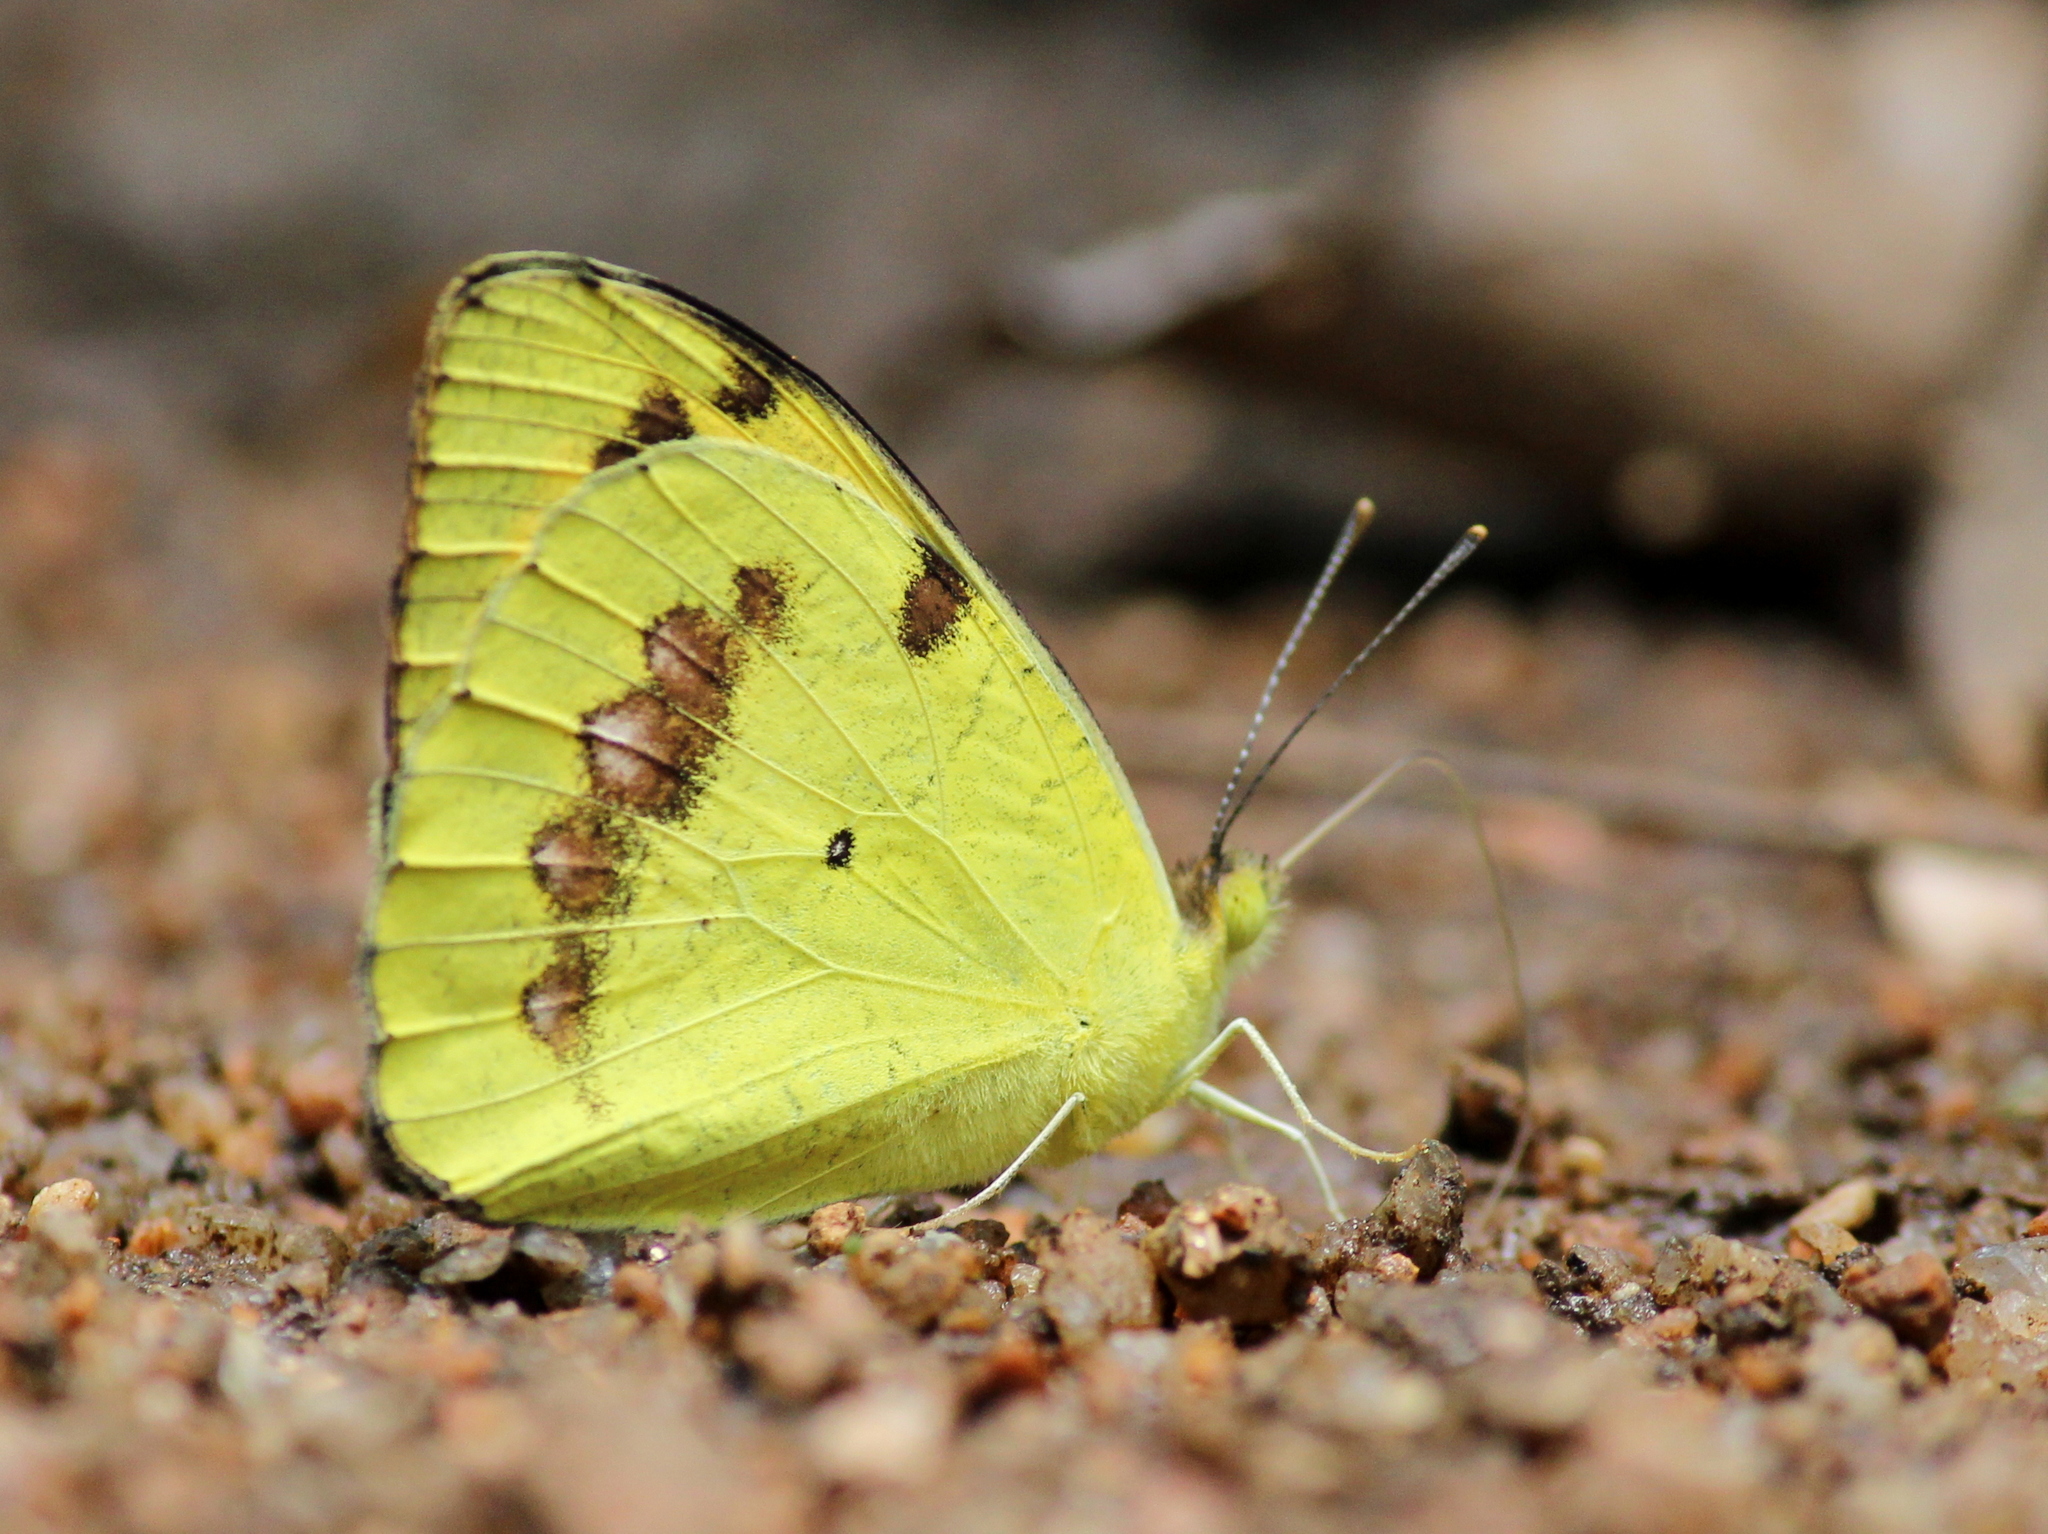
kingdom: Animalia
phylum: Arthropoda
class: Insecta
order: Lepidoptera
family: Pieridae
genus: Ixias
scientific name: Ixias marianne
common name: White orange tip
